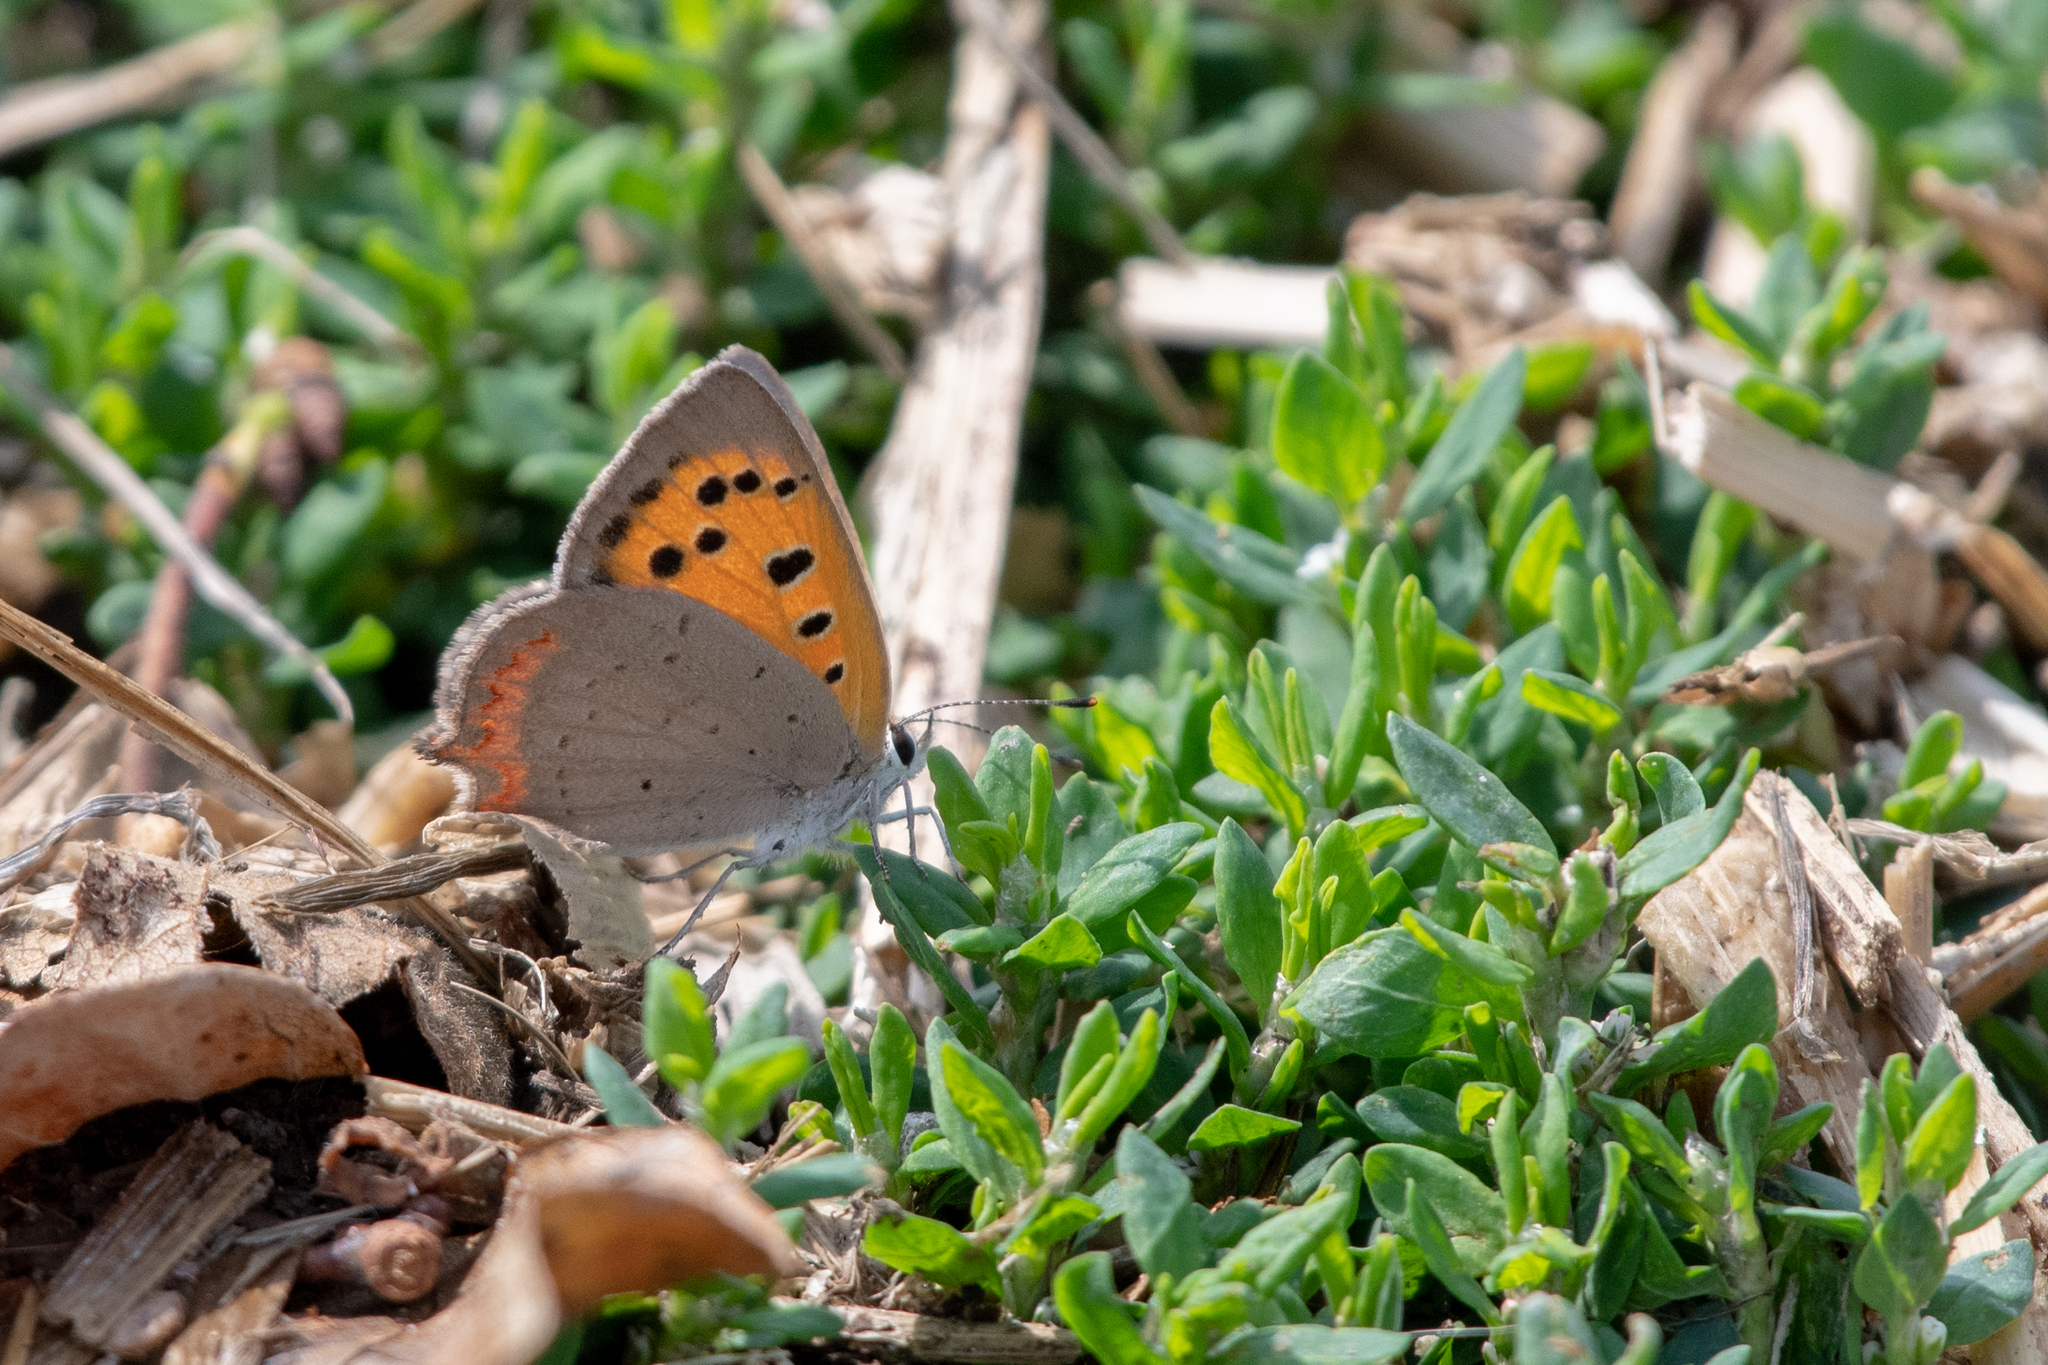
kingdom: Animalia
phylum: Arthropoda
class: Insecta
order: Lepidoptera
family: Lycaenidae
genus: Lycaena
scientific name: Lycaena phlaeas
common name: Small copper
